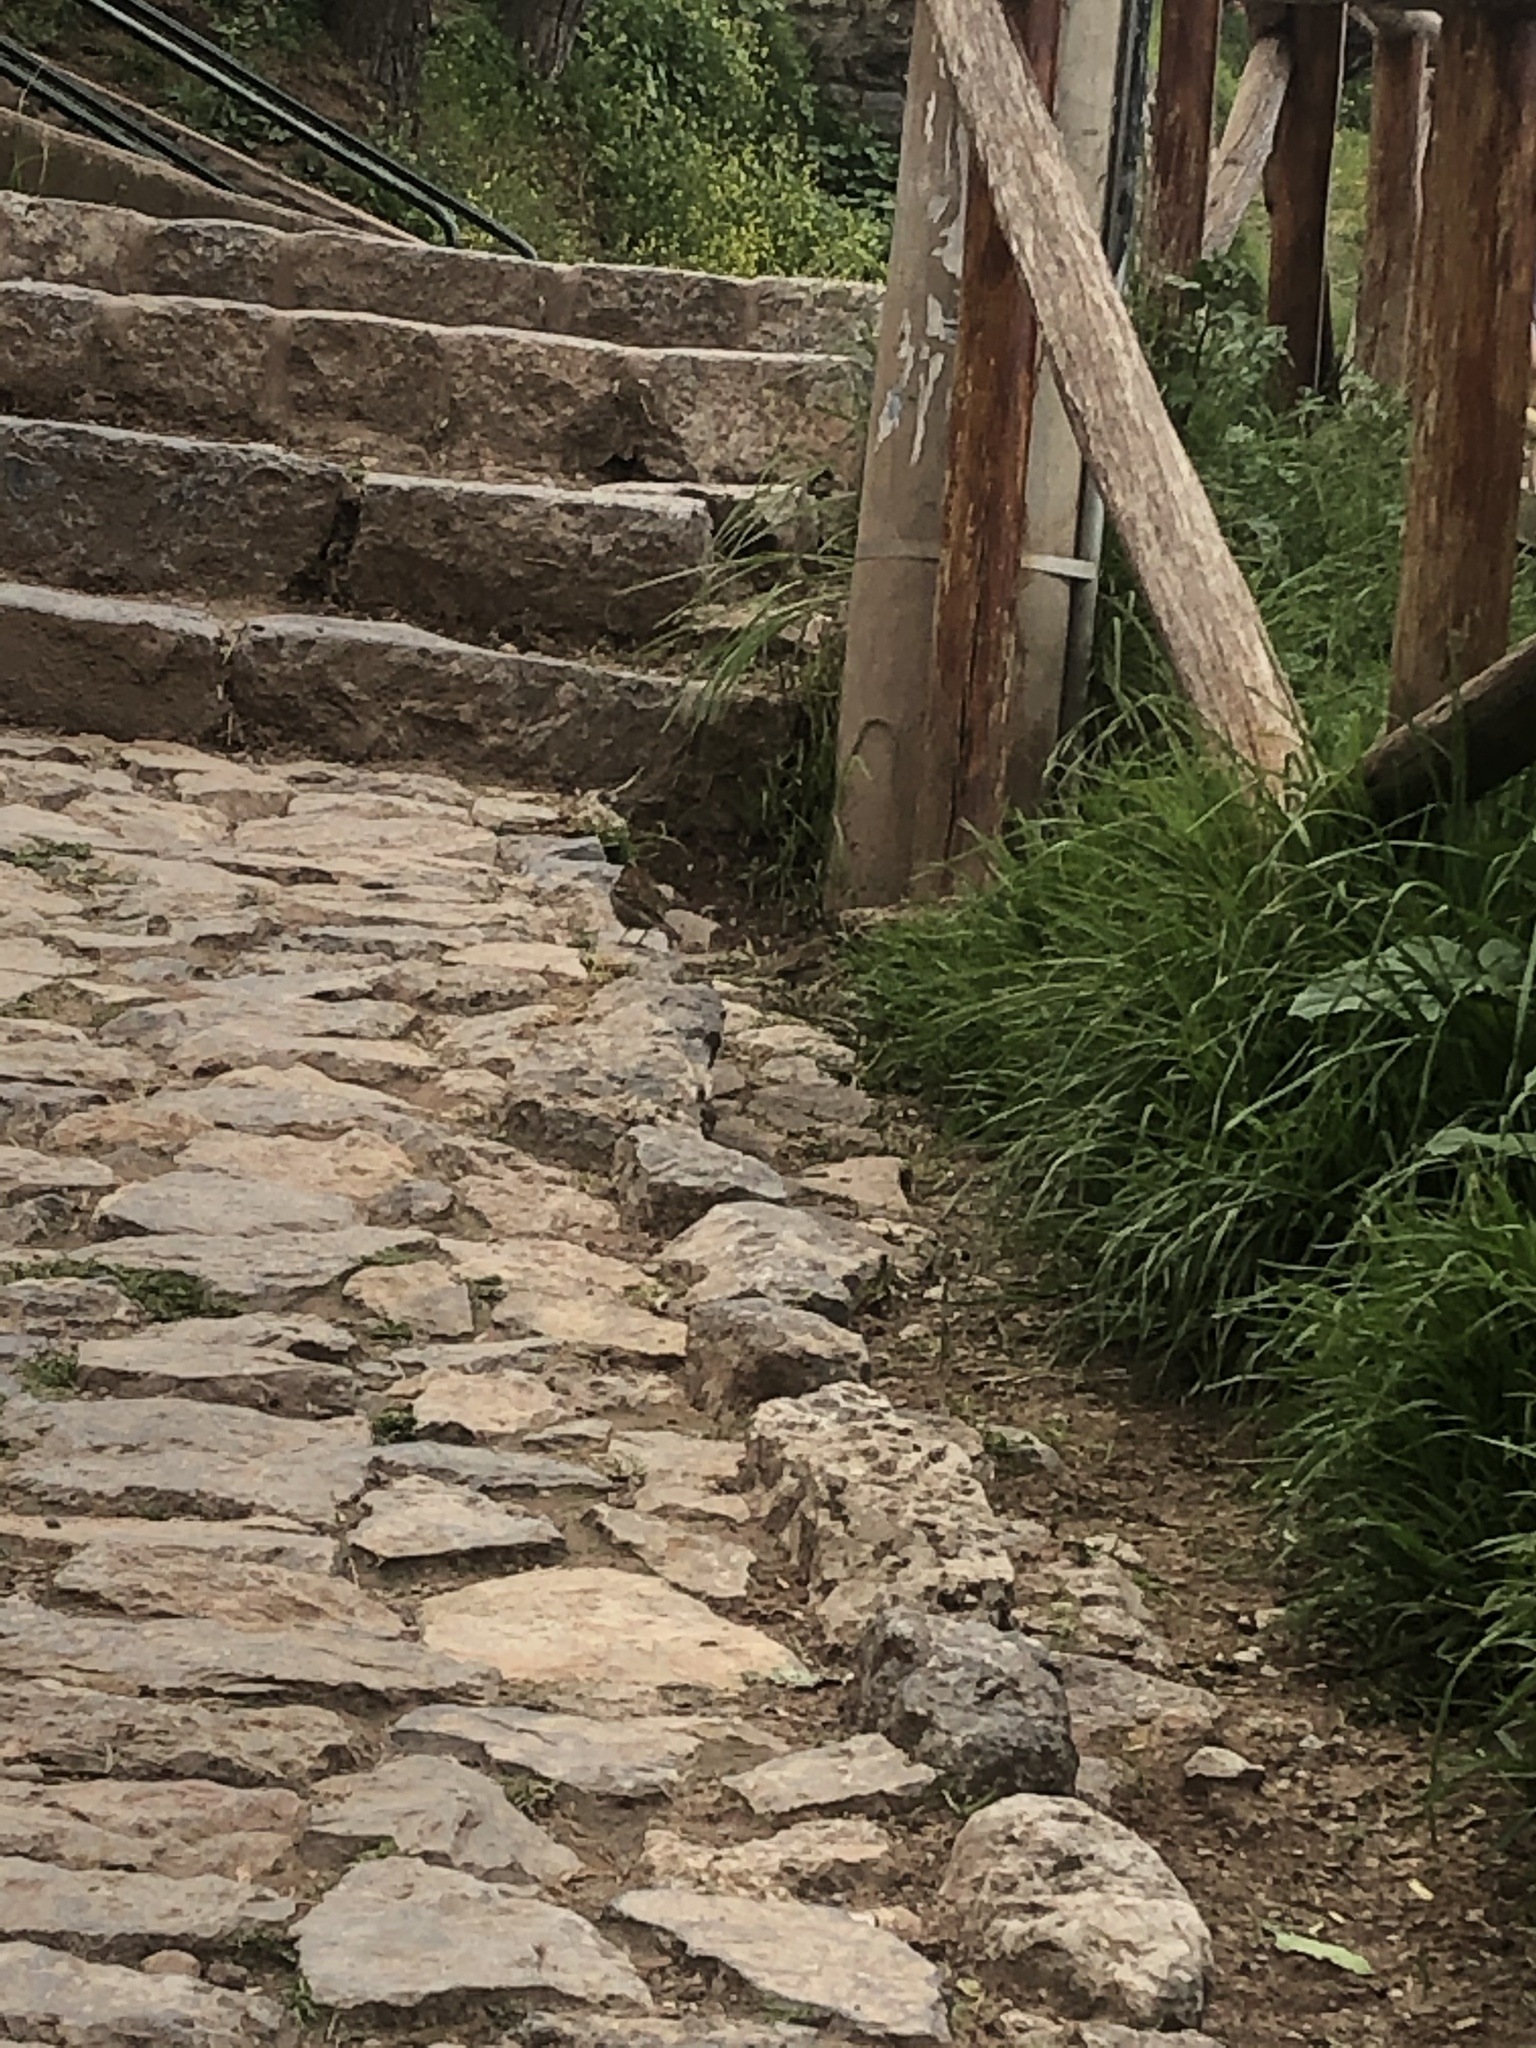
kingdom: Animalia
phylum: Chordata
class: Aves
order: Passeriformes
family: Passerellidae
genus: Zonotrichia
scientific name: Zonotrichia capensis
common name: Rufous-collared sparrow
